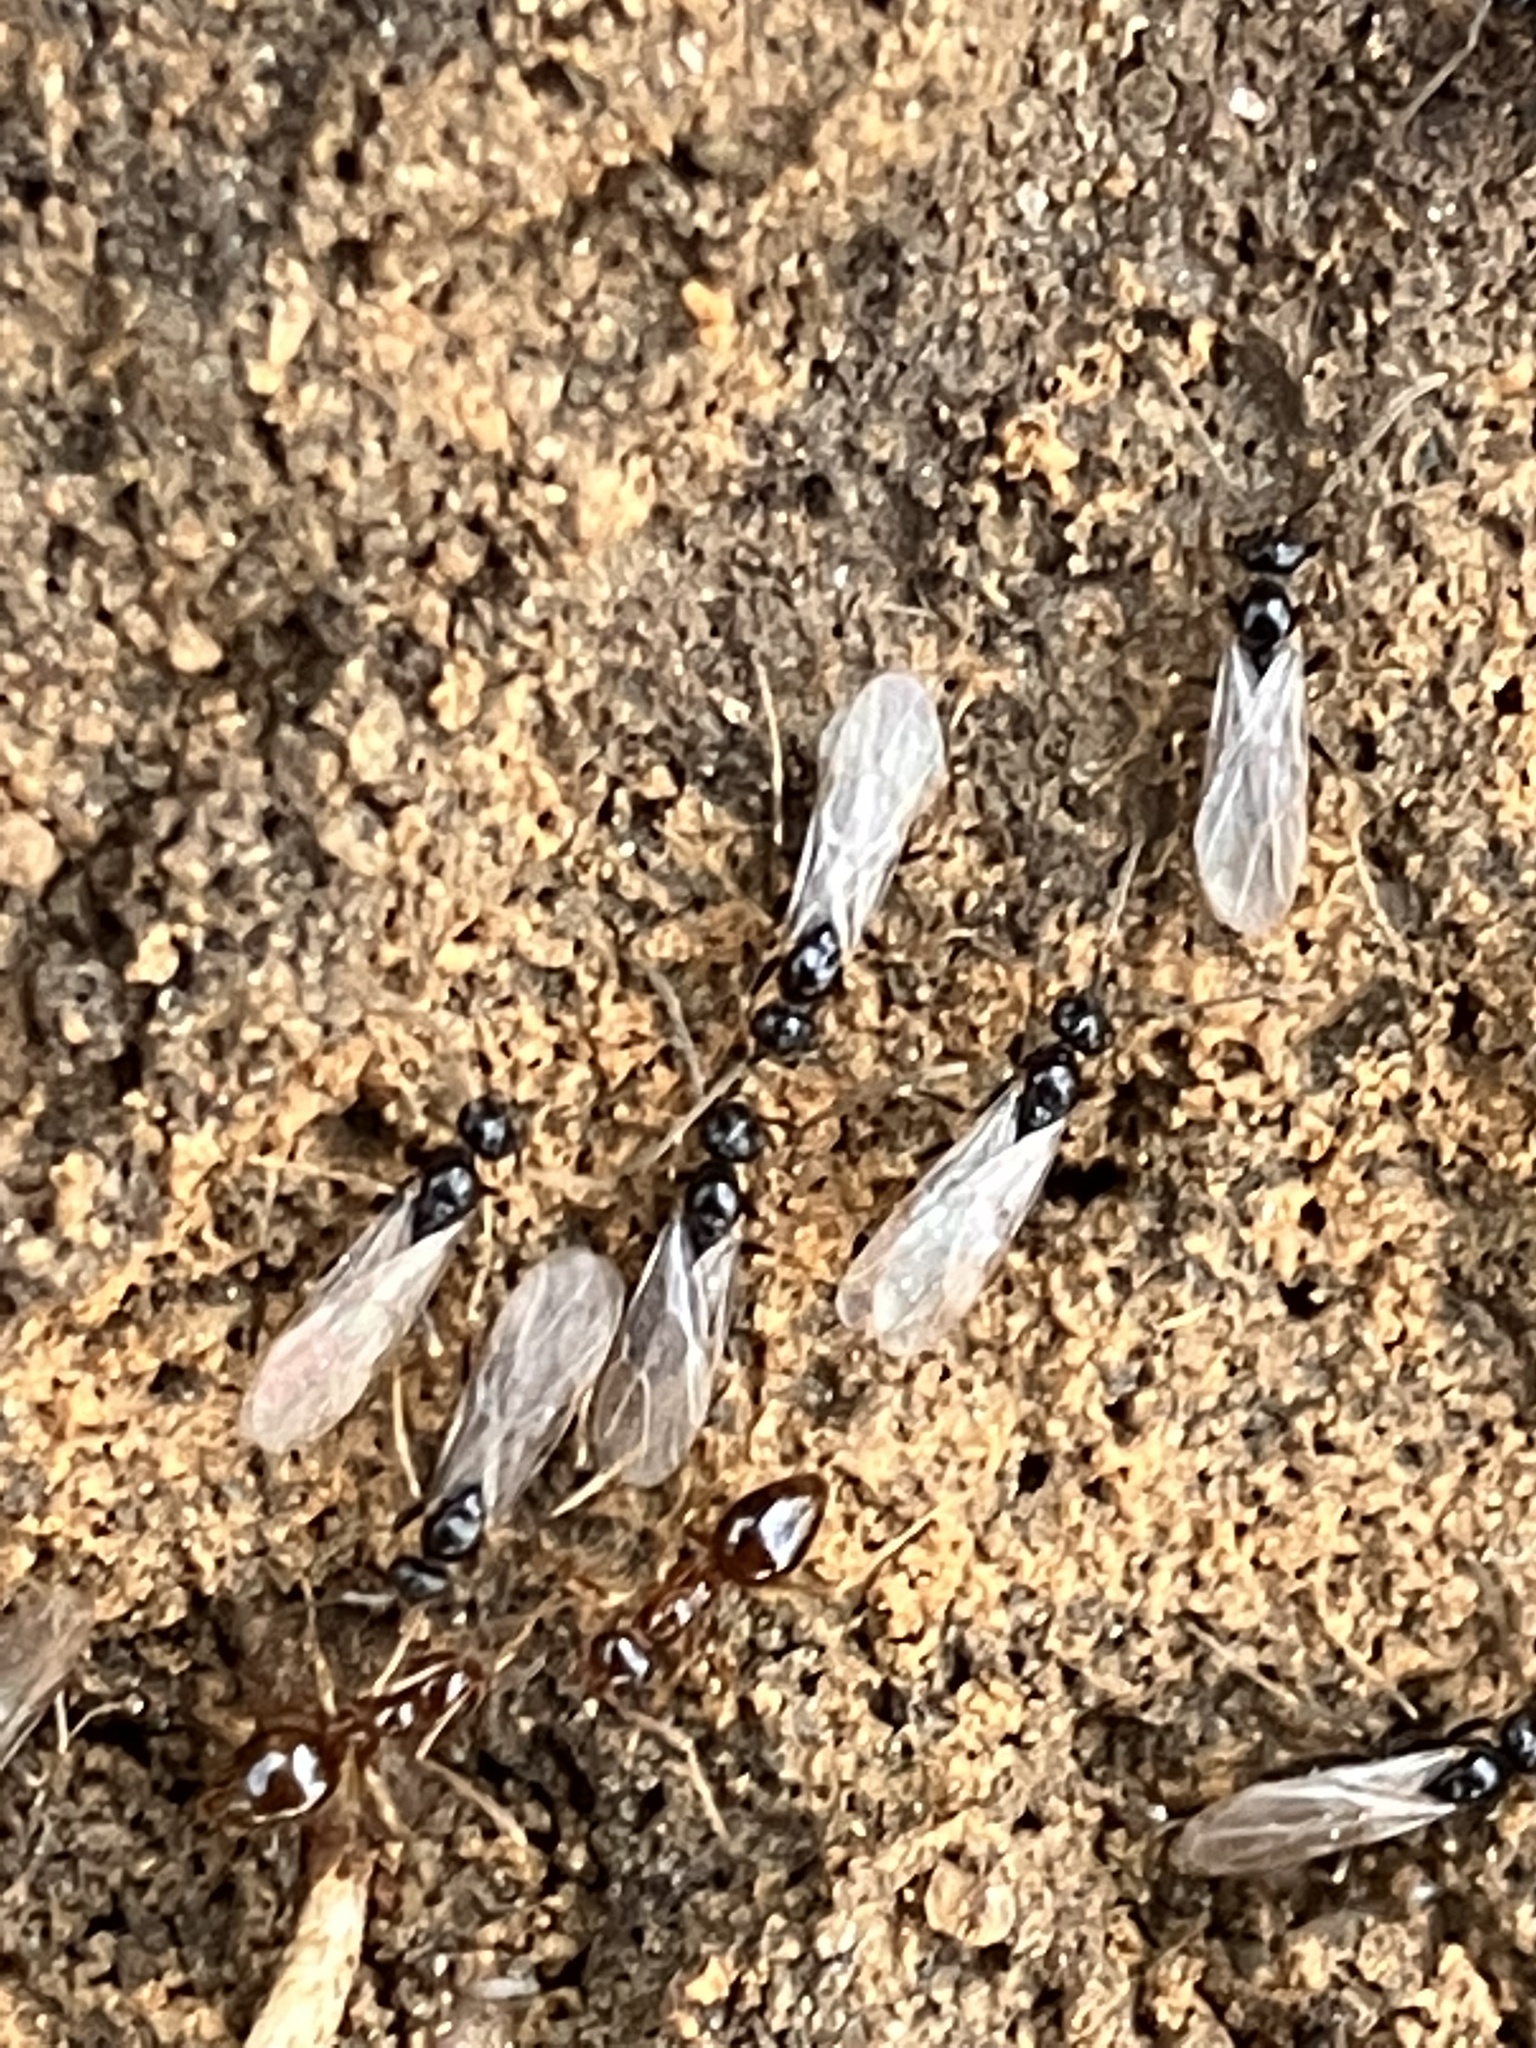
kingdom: Animalia
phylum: Arthropoda
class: Insecta
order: Hymenoptera
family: Formicidae
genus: Prenolepis
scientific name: Prenolepis imparis
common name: Small honey ant
